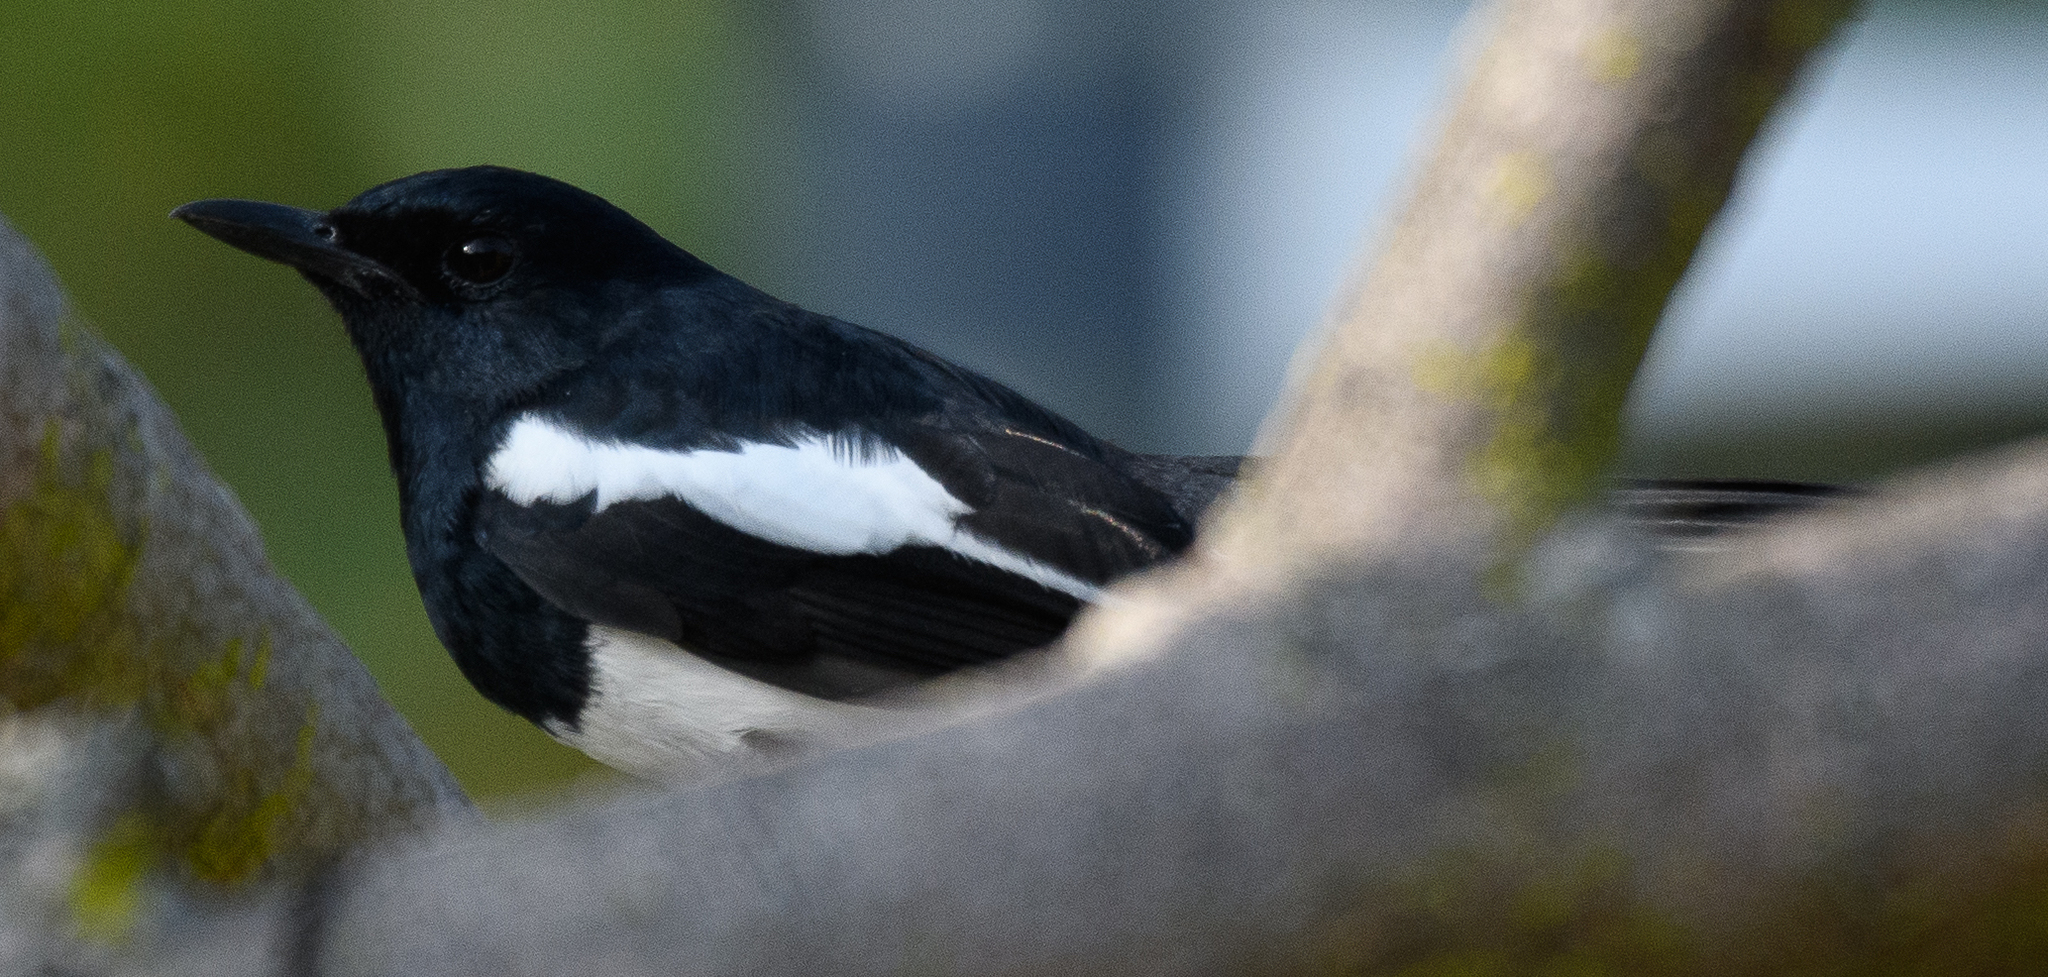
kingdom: Animalia
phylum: Chordata
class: Aves
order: Passeriformes
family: Muscicapidae
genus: Copsychus
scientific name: Copsychus saularis
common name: Oriental magpie-robin
